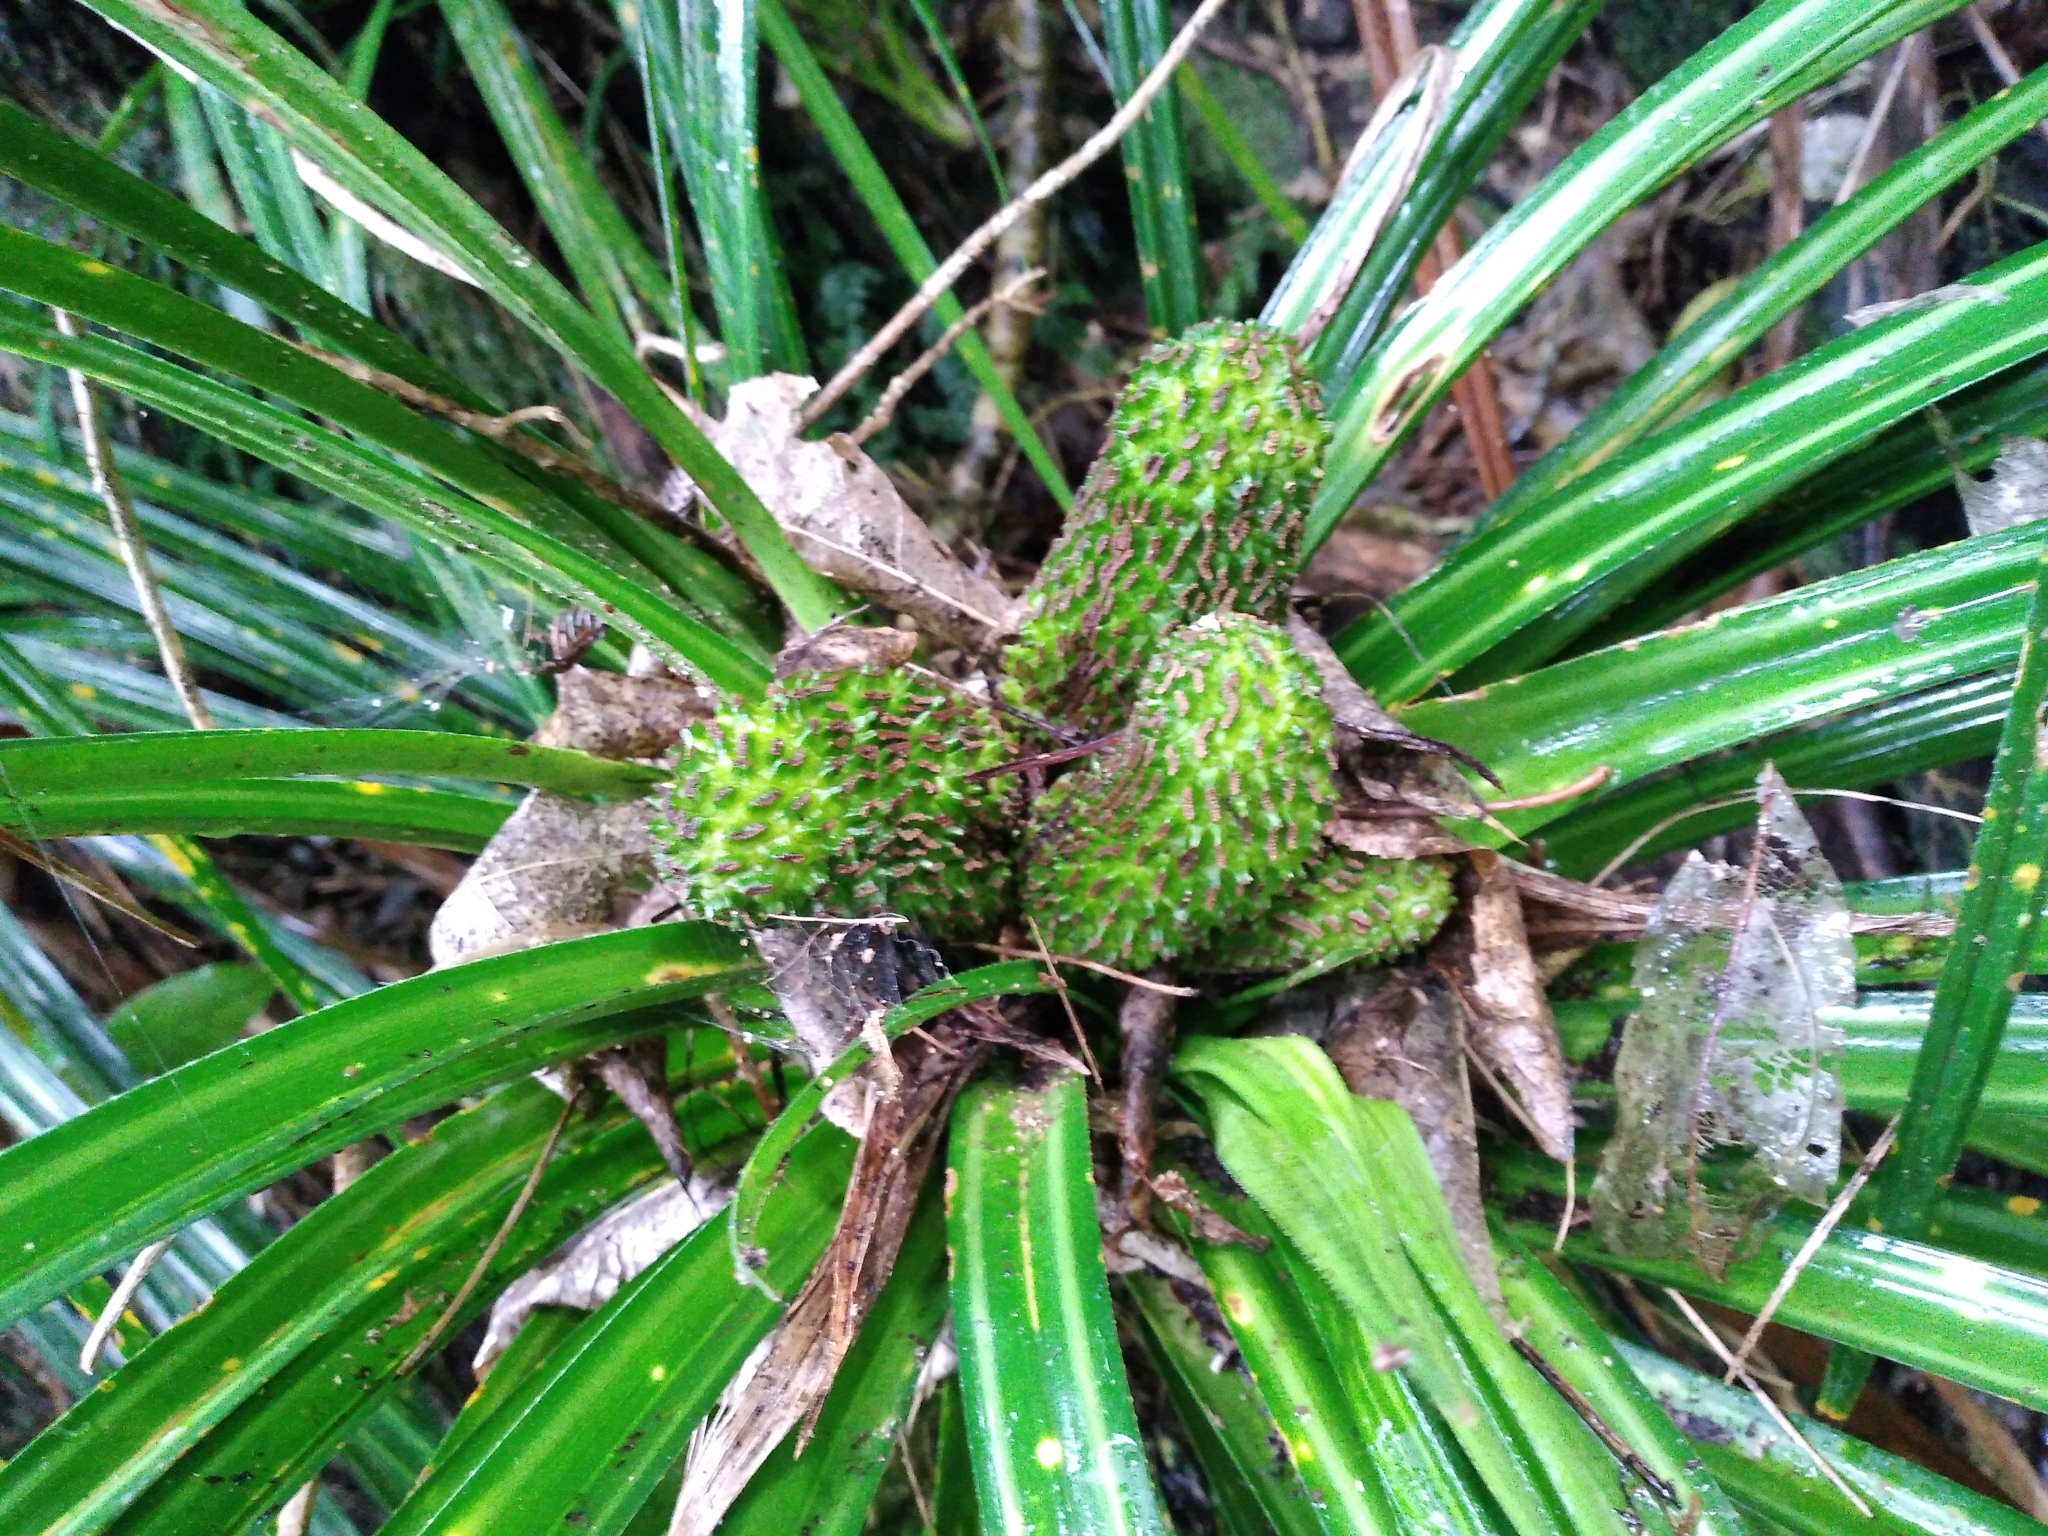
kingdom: Plantae
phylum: Tracheophyta
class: Liliopsida
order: Pandanales
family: Pandanaceae
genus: Freycinetia
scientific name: Freycinetia banksii
